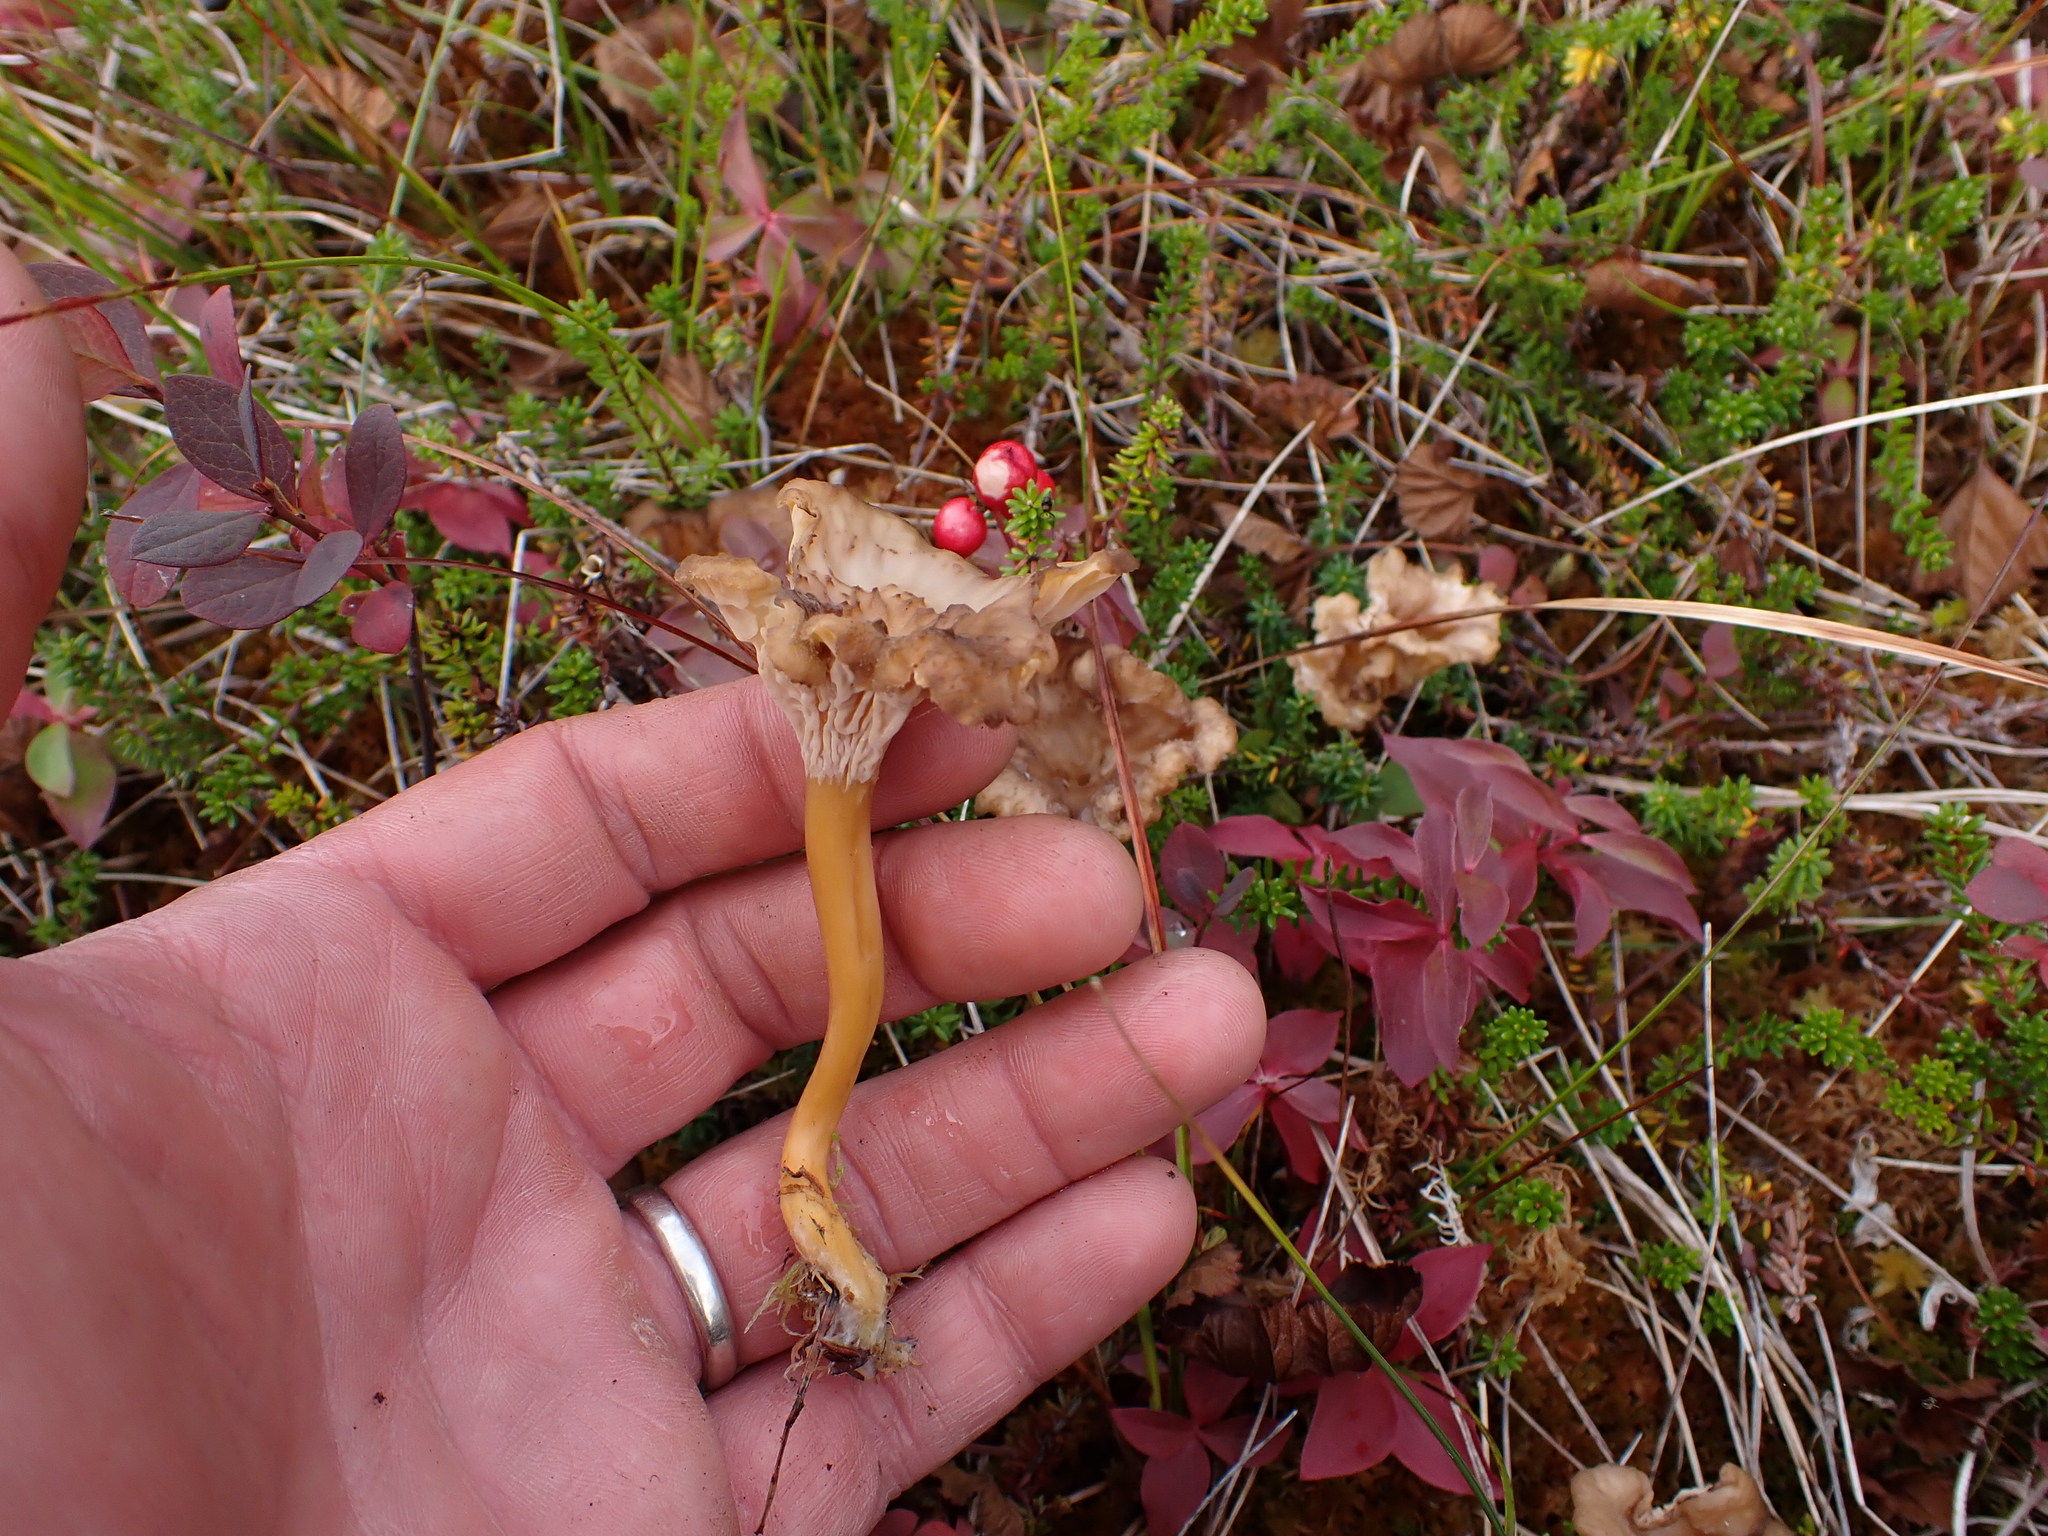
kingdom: Fungi
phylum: Basidiomycota
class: Agaricomycetes
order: Cantharellales
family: Hydnaceae
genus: Craterellus
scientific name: Craterellus tubaeformis
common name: Yellowfoot
